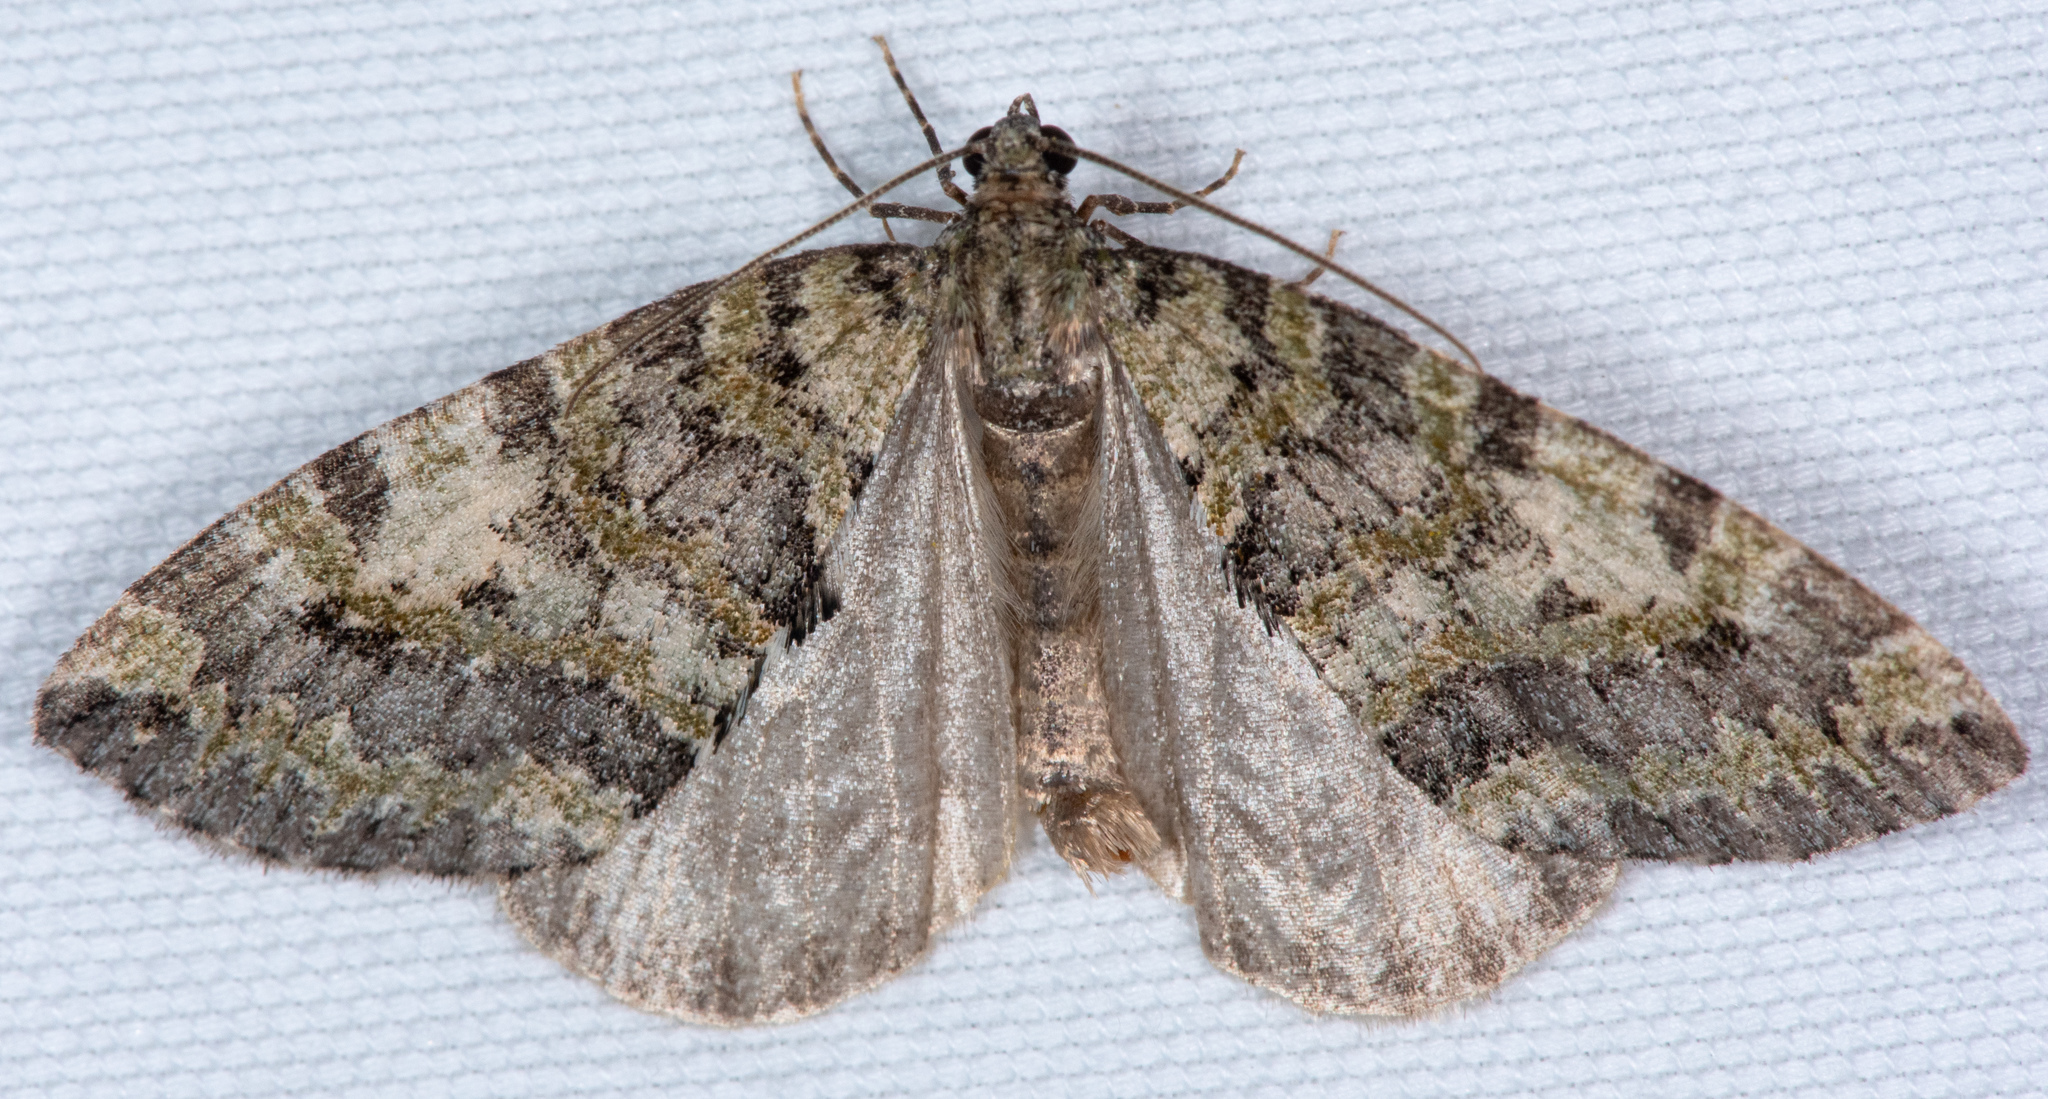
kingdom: Animalia
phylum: Arthropoda
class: Insecta
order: Lepidoptera
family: Geometridae
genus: Hydriomena
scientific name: Hydriomena nubilofasciata
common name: Oak winter highflier moth
